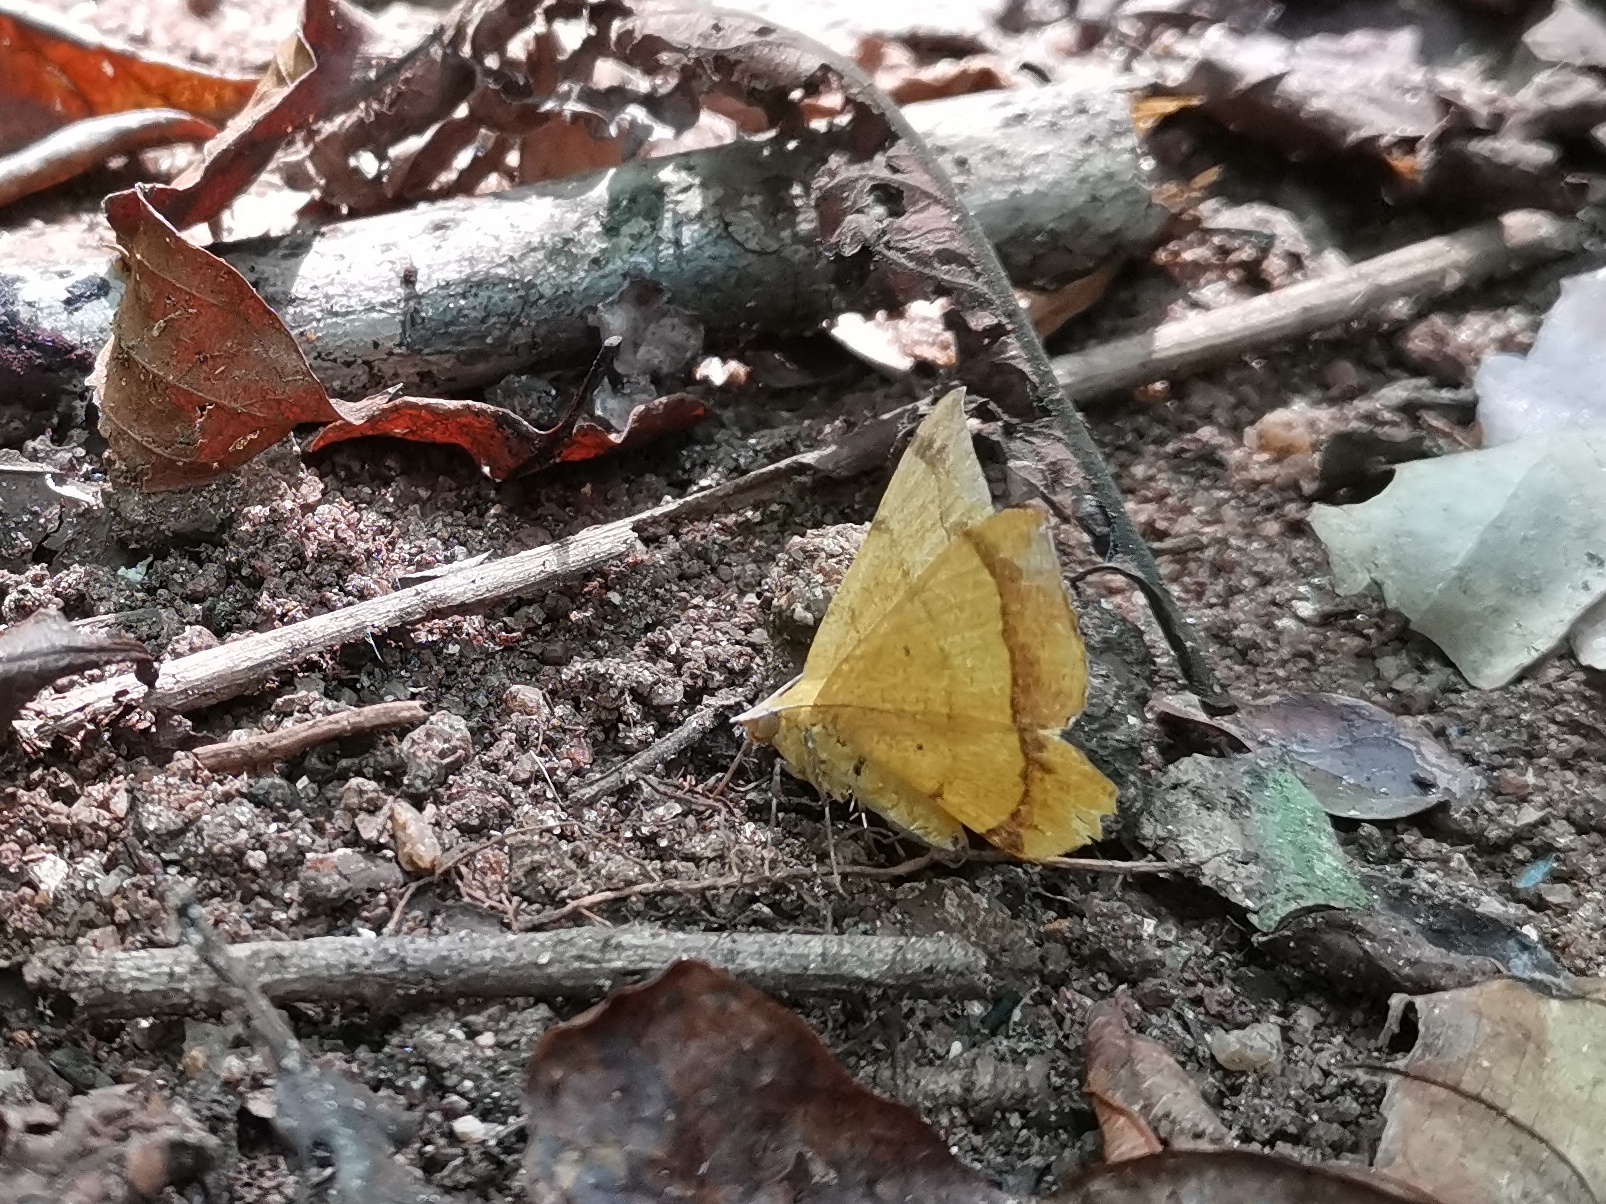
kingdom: Animalia
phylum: Arthropoda
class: Insecta
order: Lepidoptera
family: Geometridae
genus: Hyperythra
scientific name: Hyperythra lutea
